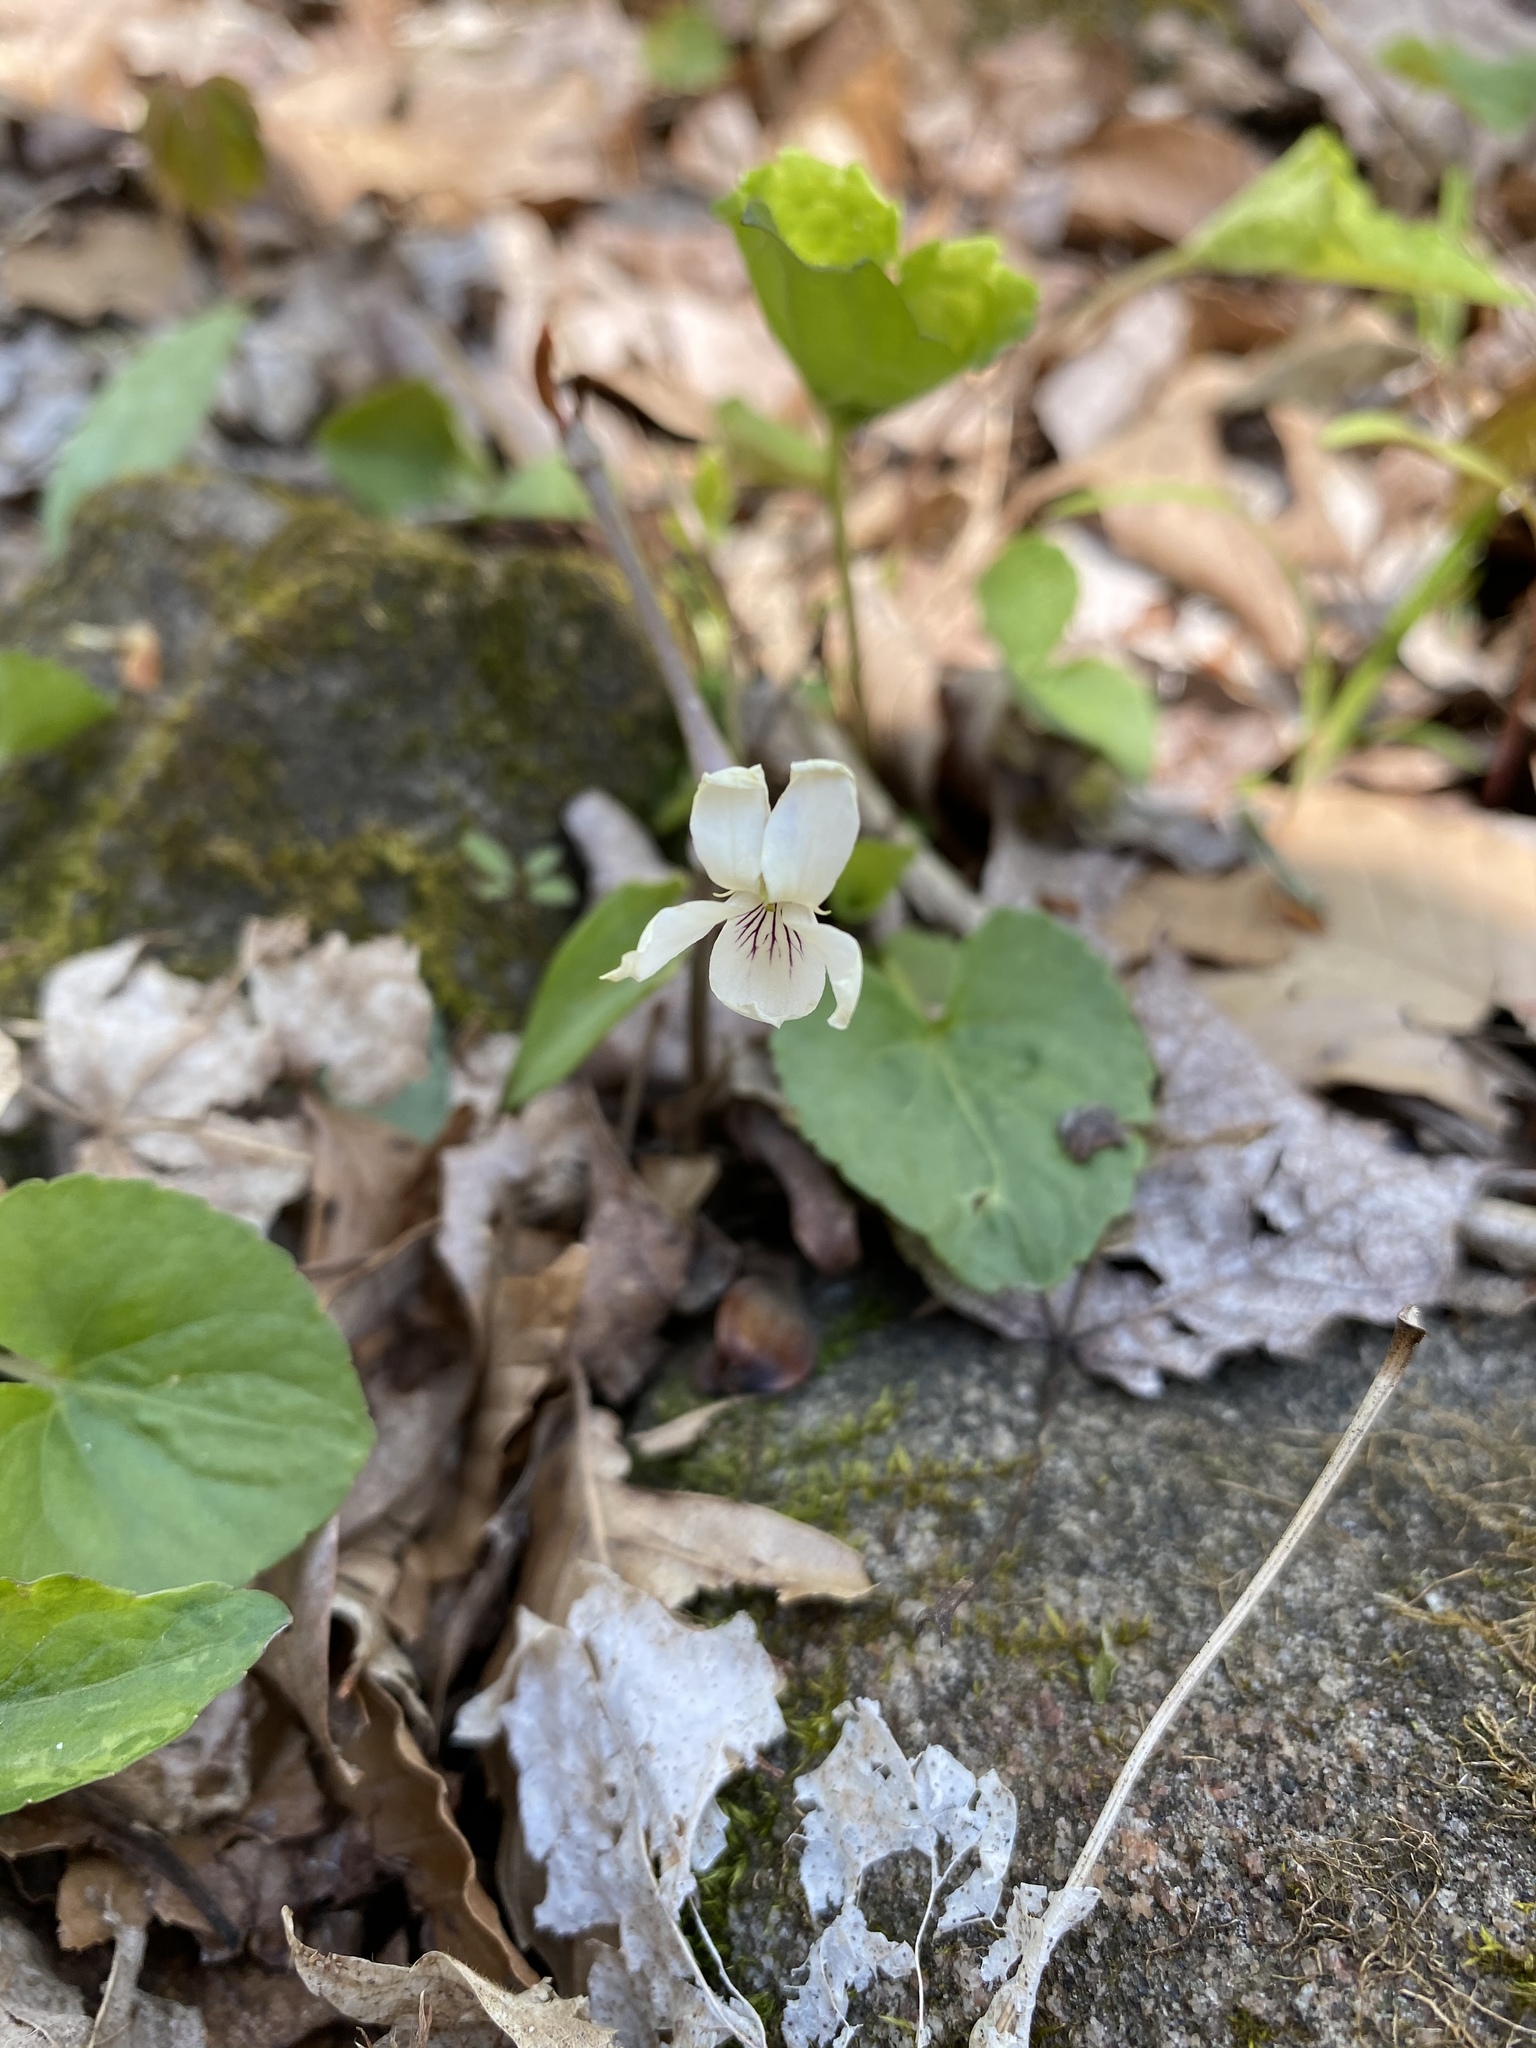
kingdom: Plantae
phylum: Tracheophyta
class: Magnoliopsida
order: Malpighiales
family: Violaceae
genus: Viola
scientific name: Viola blanda
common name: Sweet white violet
